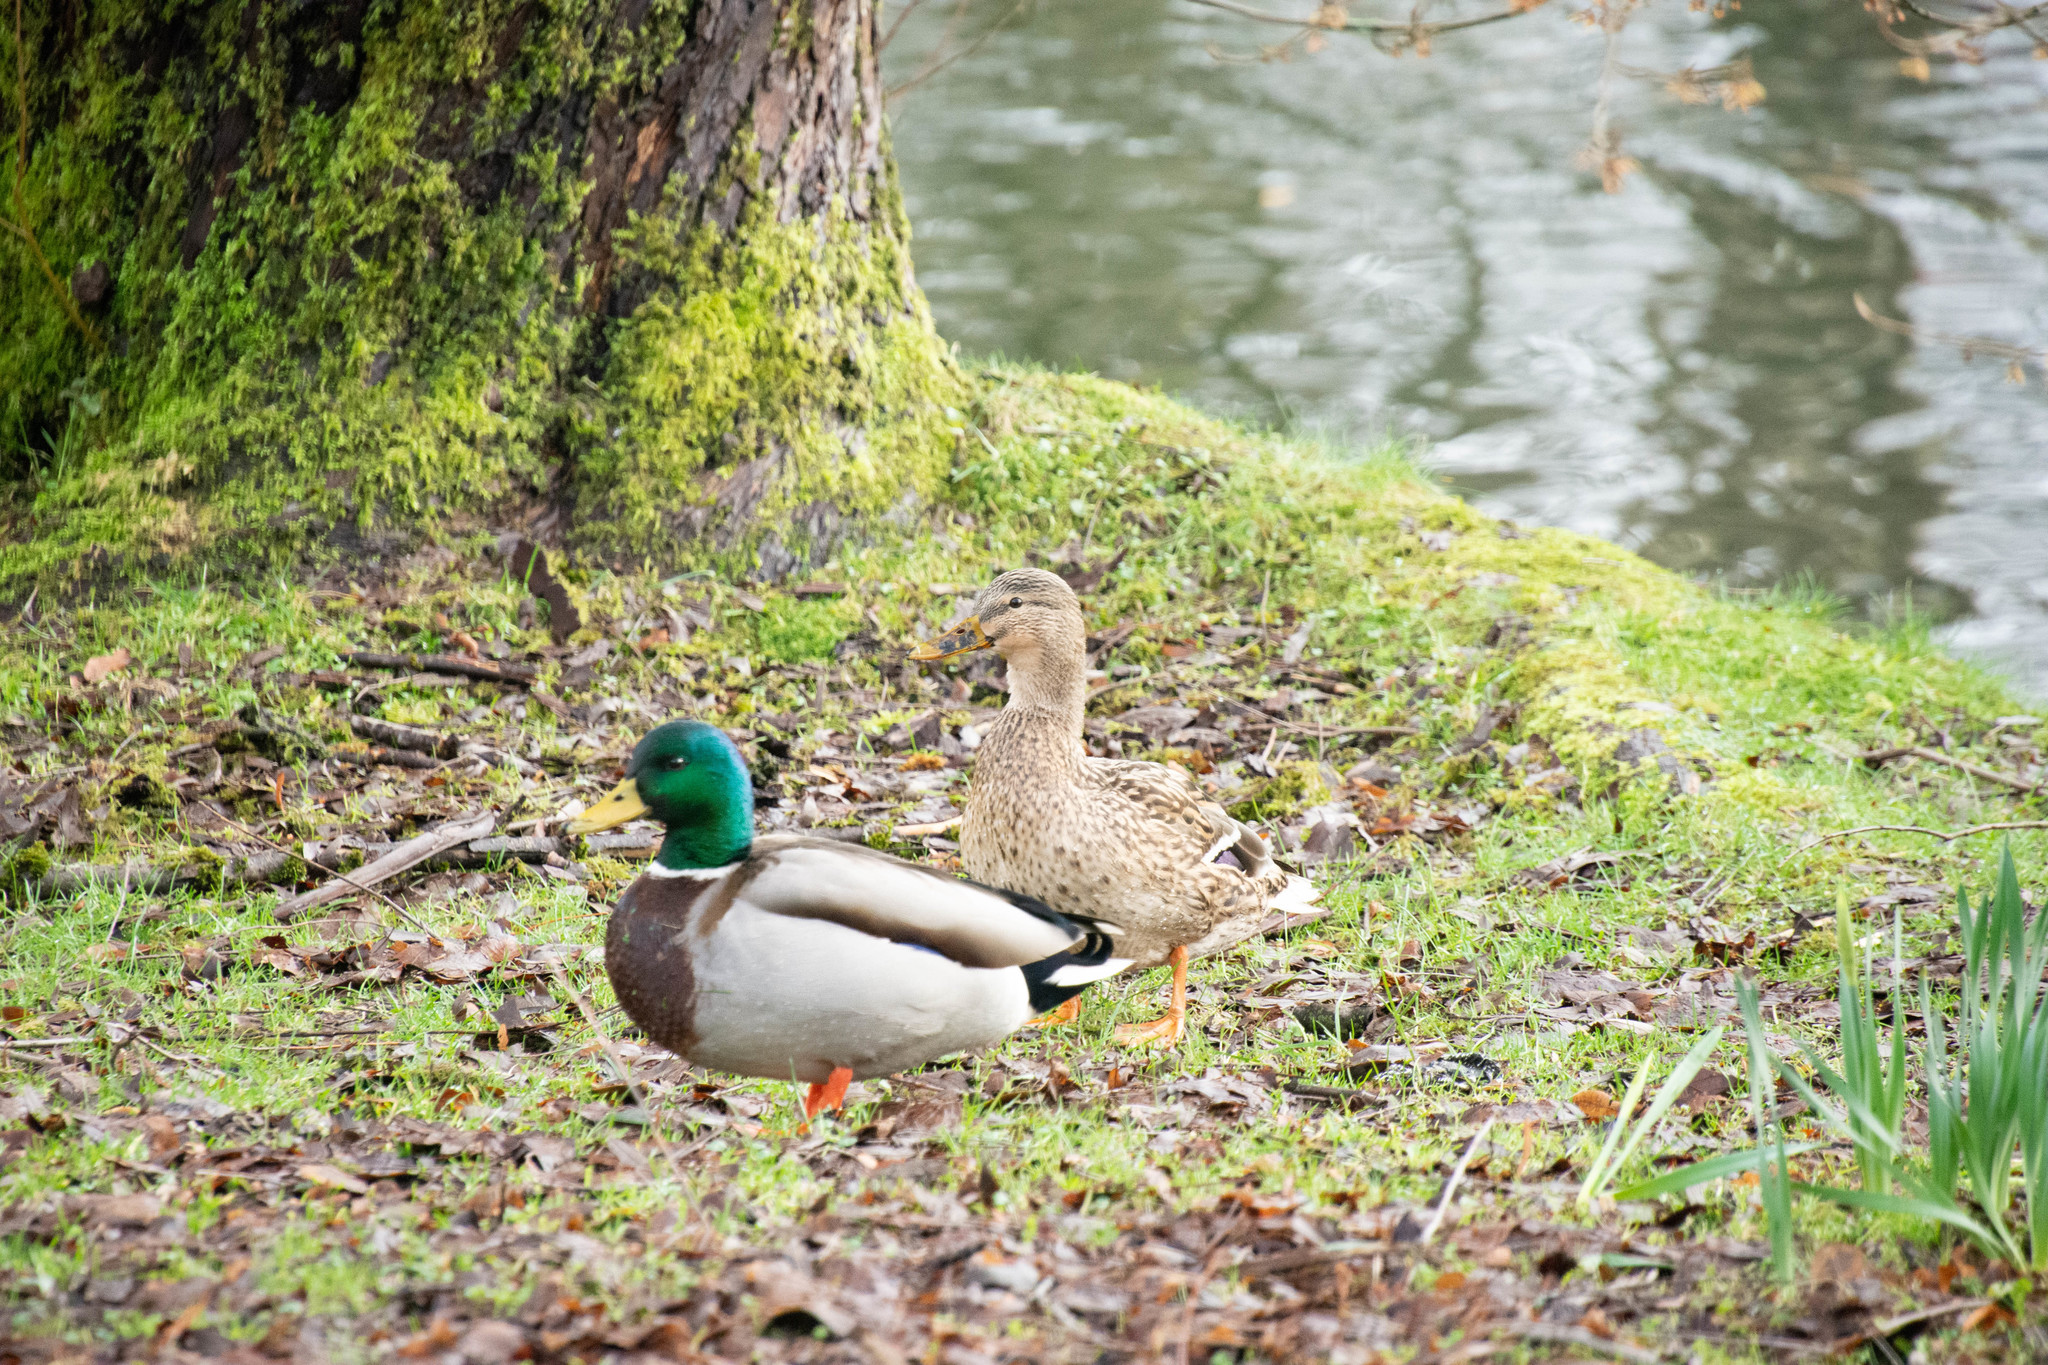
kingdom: Animalia
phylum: Chordata
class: Aves
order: Anseriformes
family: Anatidae
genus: Anas
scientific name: Anas platyrhynchos
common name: Mallard
